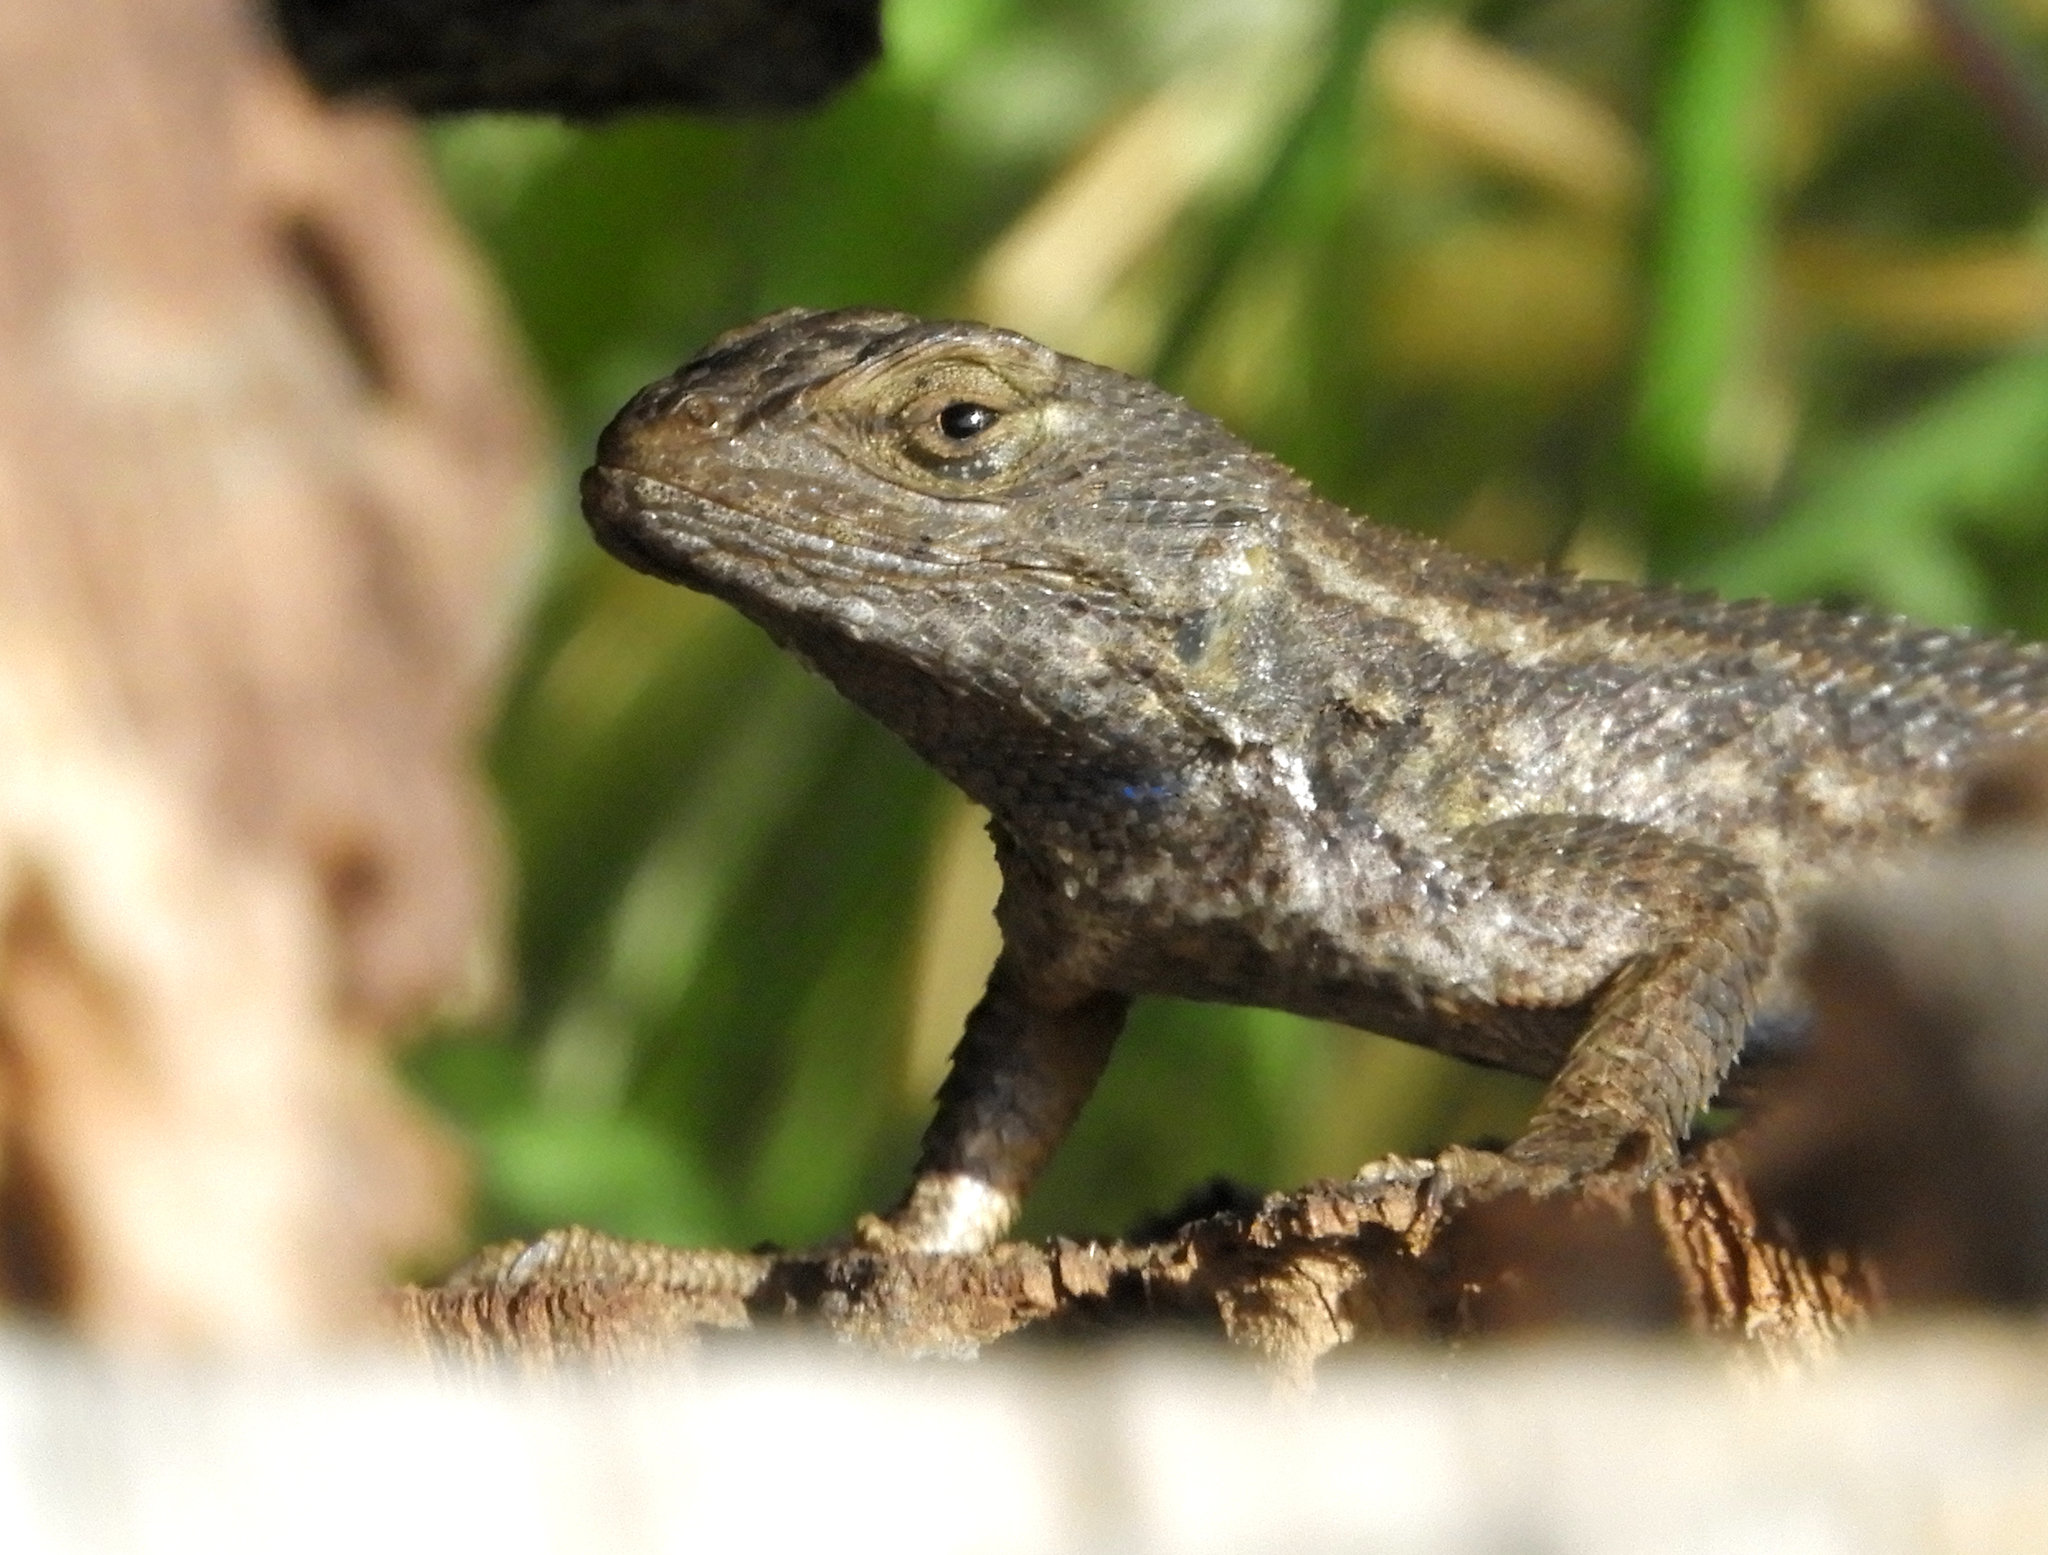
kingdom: Animalia
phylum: Chordata
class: Squamata
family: Phrynosomatidae
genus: Sceloporus
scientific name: Sceloporus occidentalis
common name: Western fence lizard
